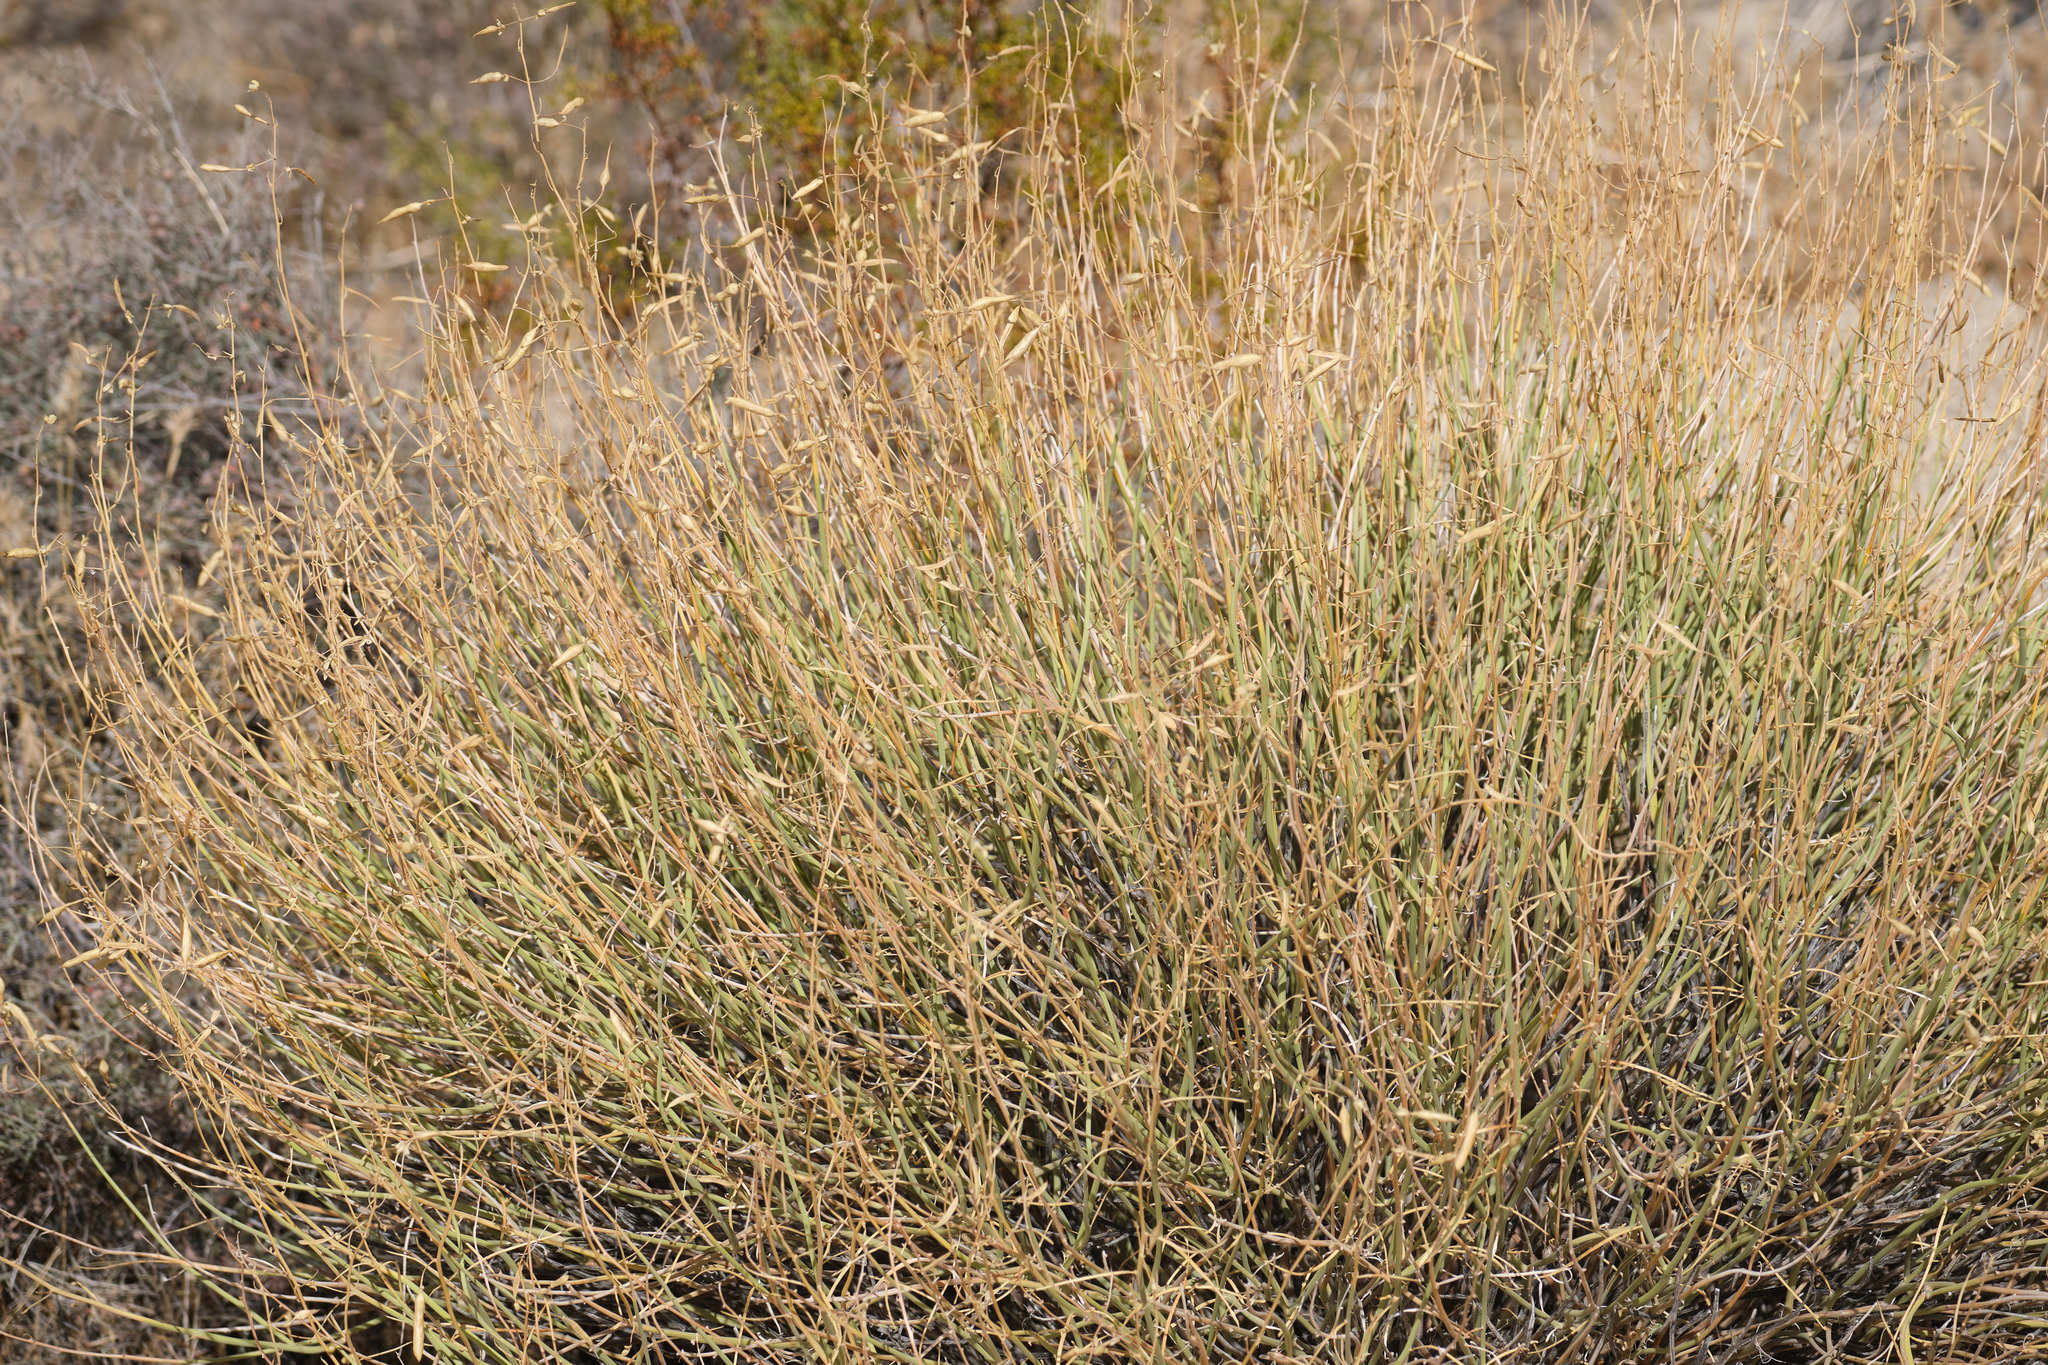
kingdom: Plantae
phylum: Tracheophyta
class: Magnoliopsida
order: Fabales
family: Fabaceae
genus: Senna
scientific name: Senna armata
